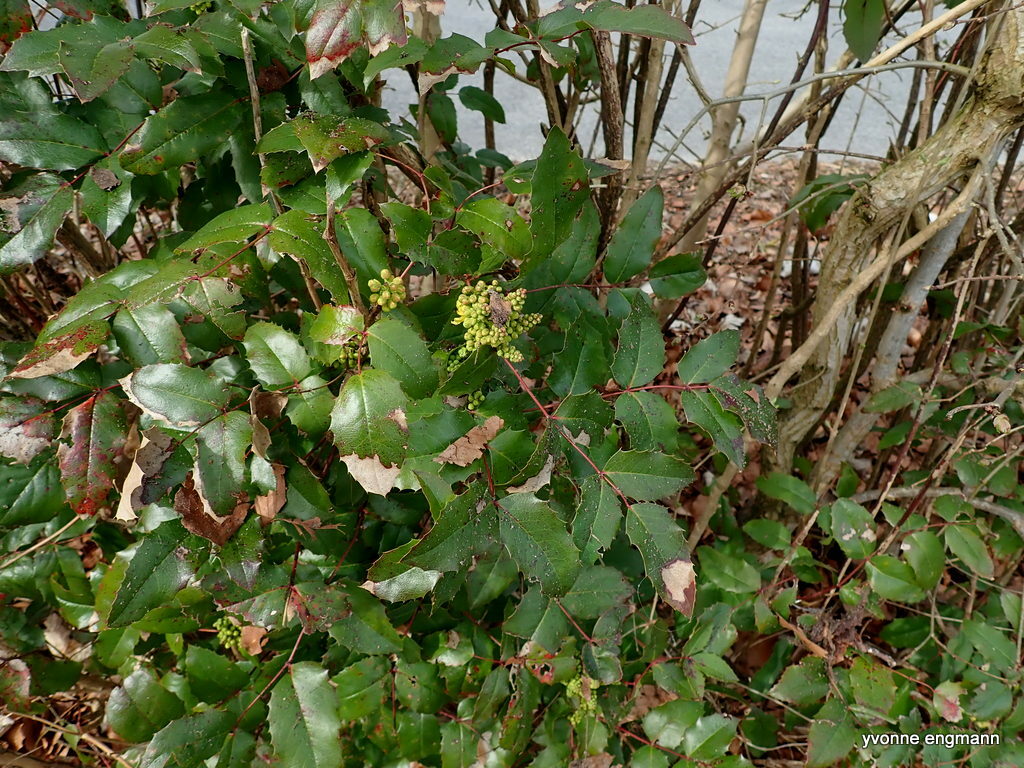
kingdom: Plantae
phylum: Tracheophyta
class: Magnoliopsida
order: Ranunculales
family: Berberidaceae
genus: Mahonia
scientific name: Mahonia aquifolium
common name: Oregon-grape
